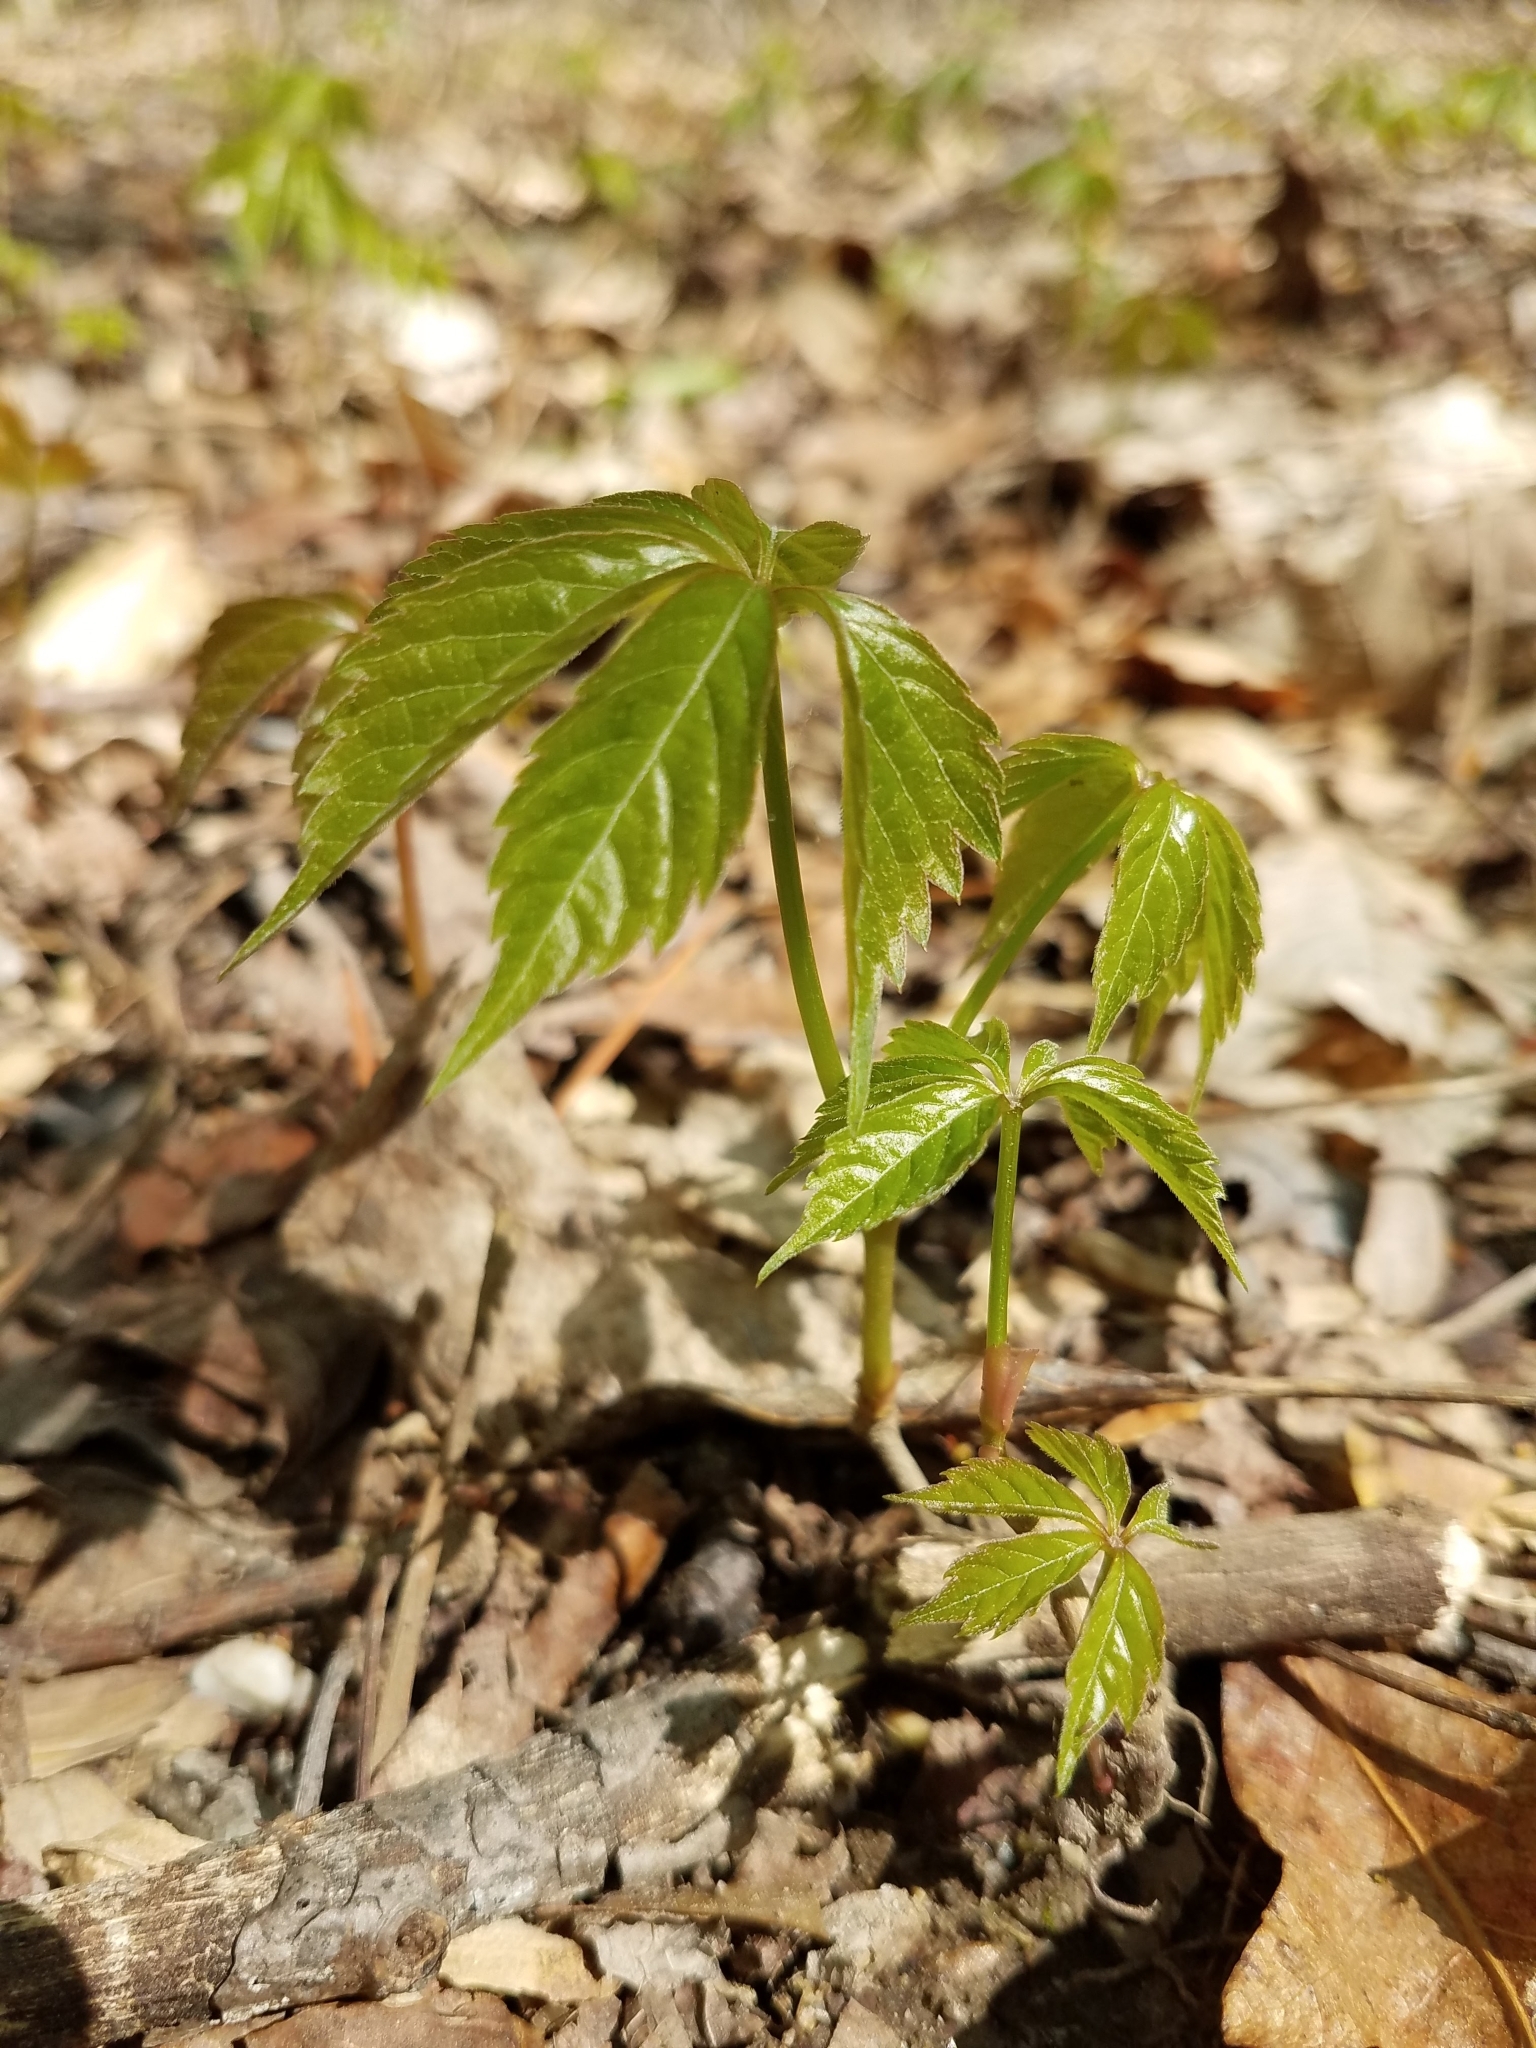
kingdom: Plantae
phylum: Tracheophyta
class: Magnoliopsida
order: Vitales
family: Vitaceae
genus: Parthenocissus
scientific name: Parthenocissus quinquefolia
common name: Virginia-creeper
